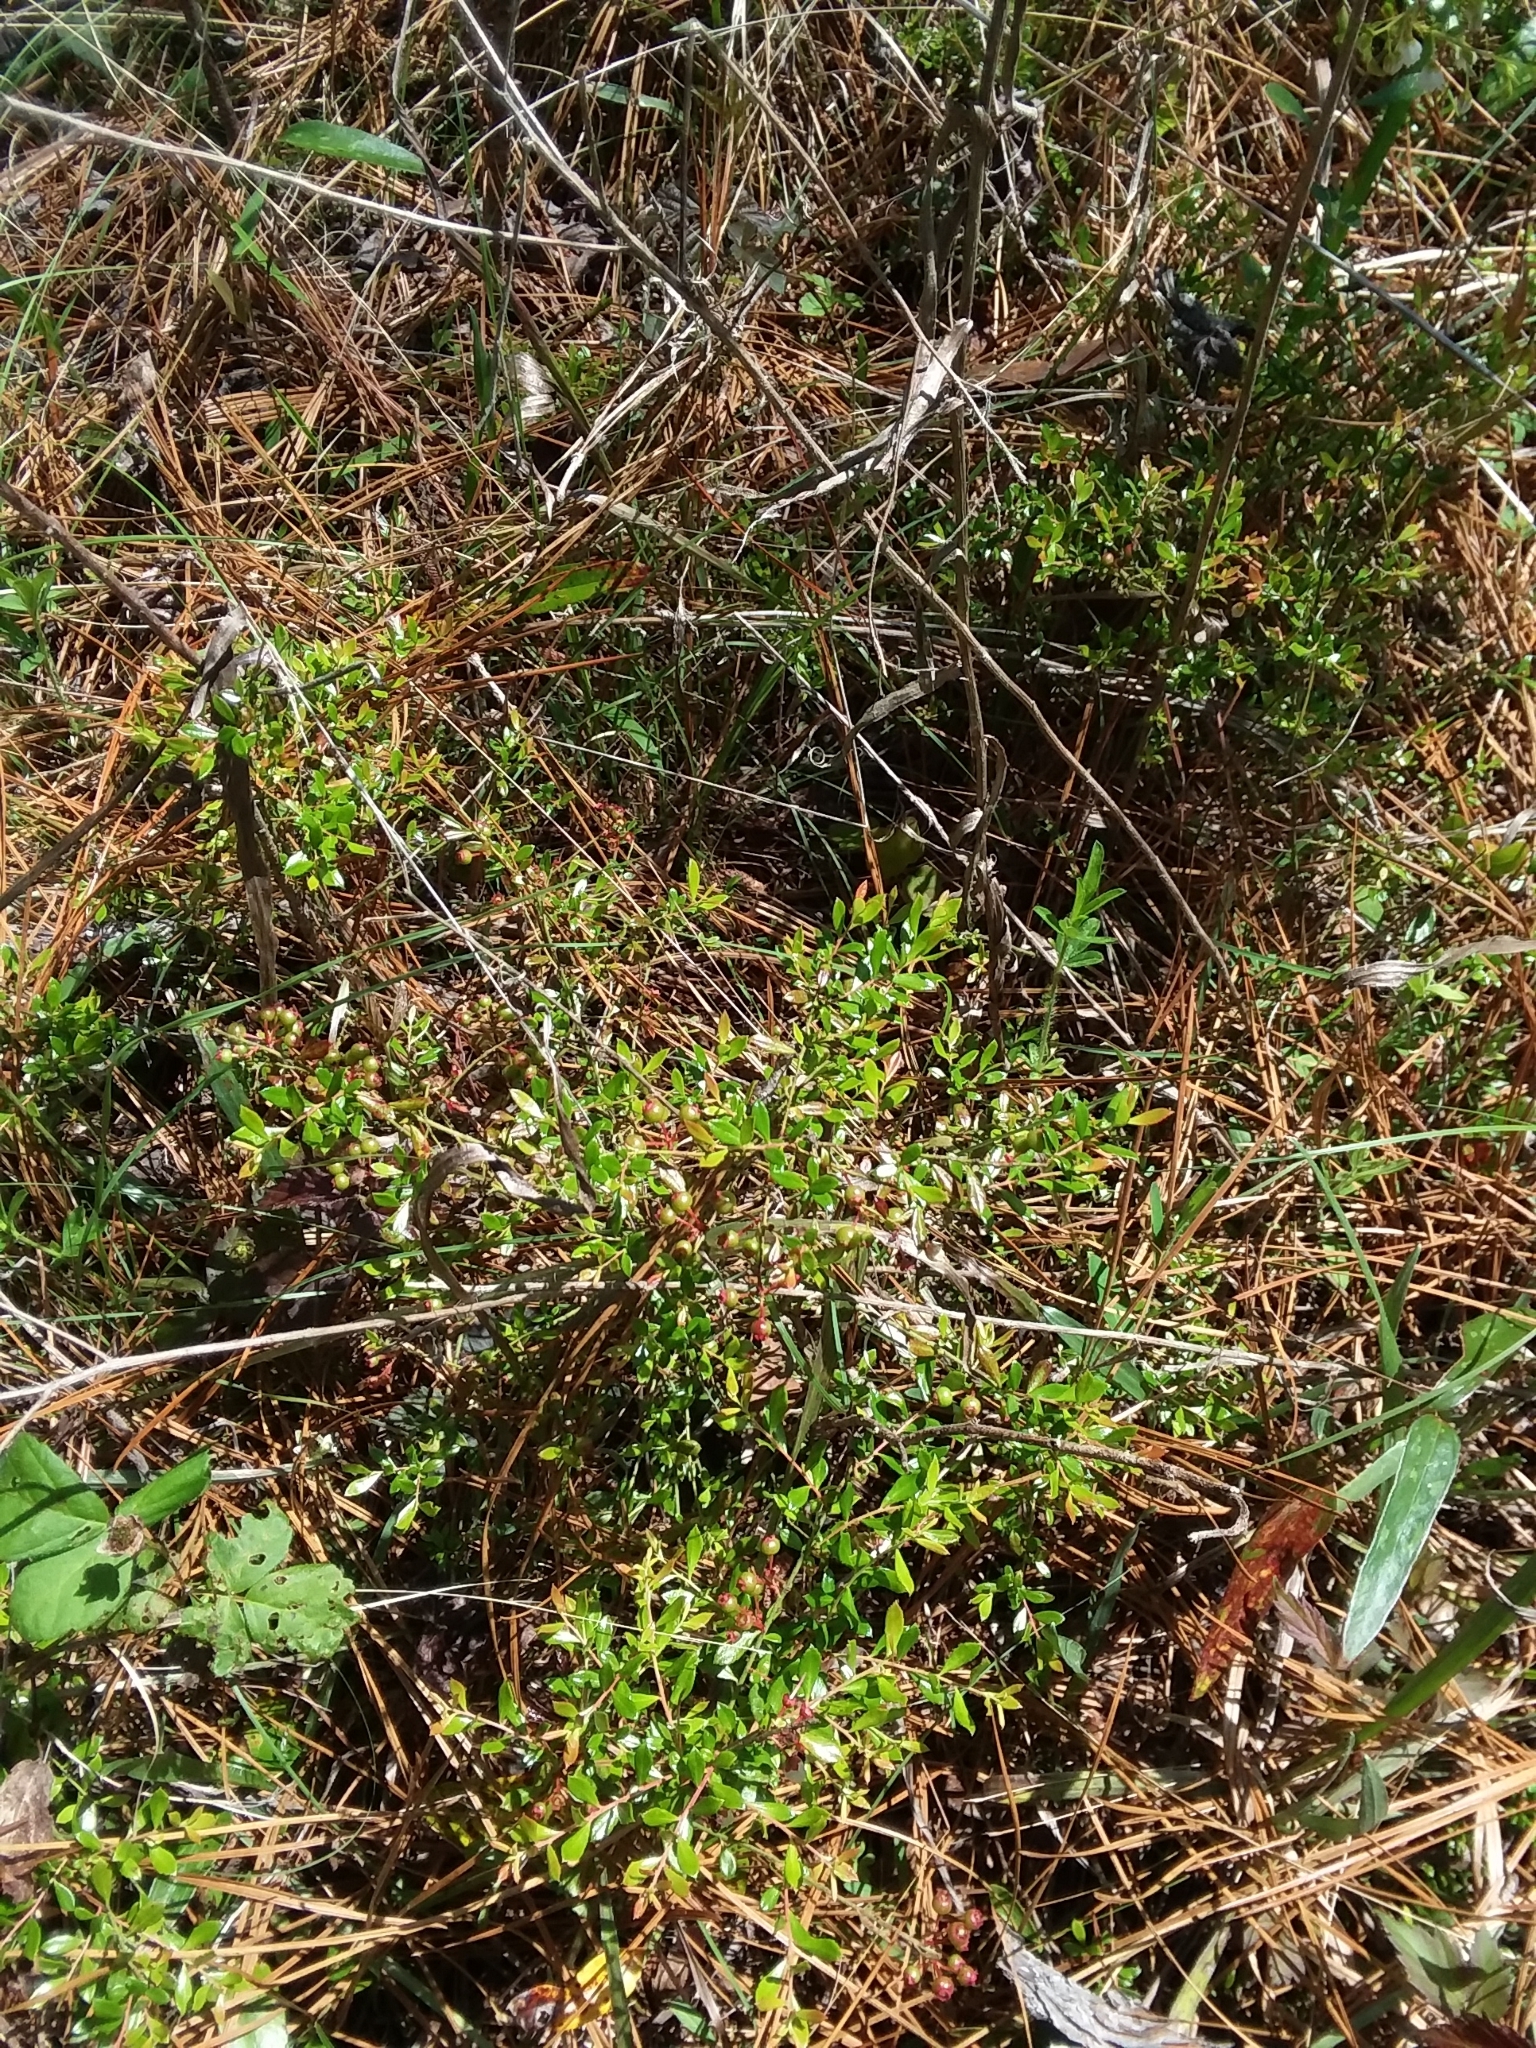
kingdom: Plantae
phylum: Tracheophyta
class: Magnoliopsida
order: Ericales
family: Ericaceae
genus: Vaccinium
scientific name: Vaccinium myrsinites
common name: Evergreen blueberry
